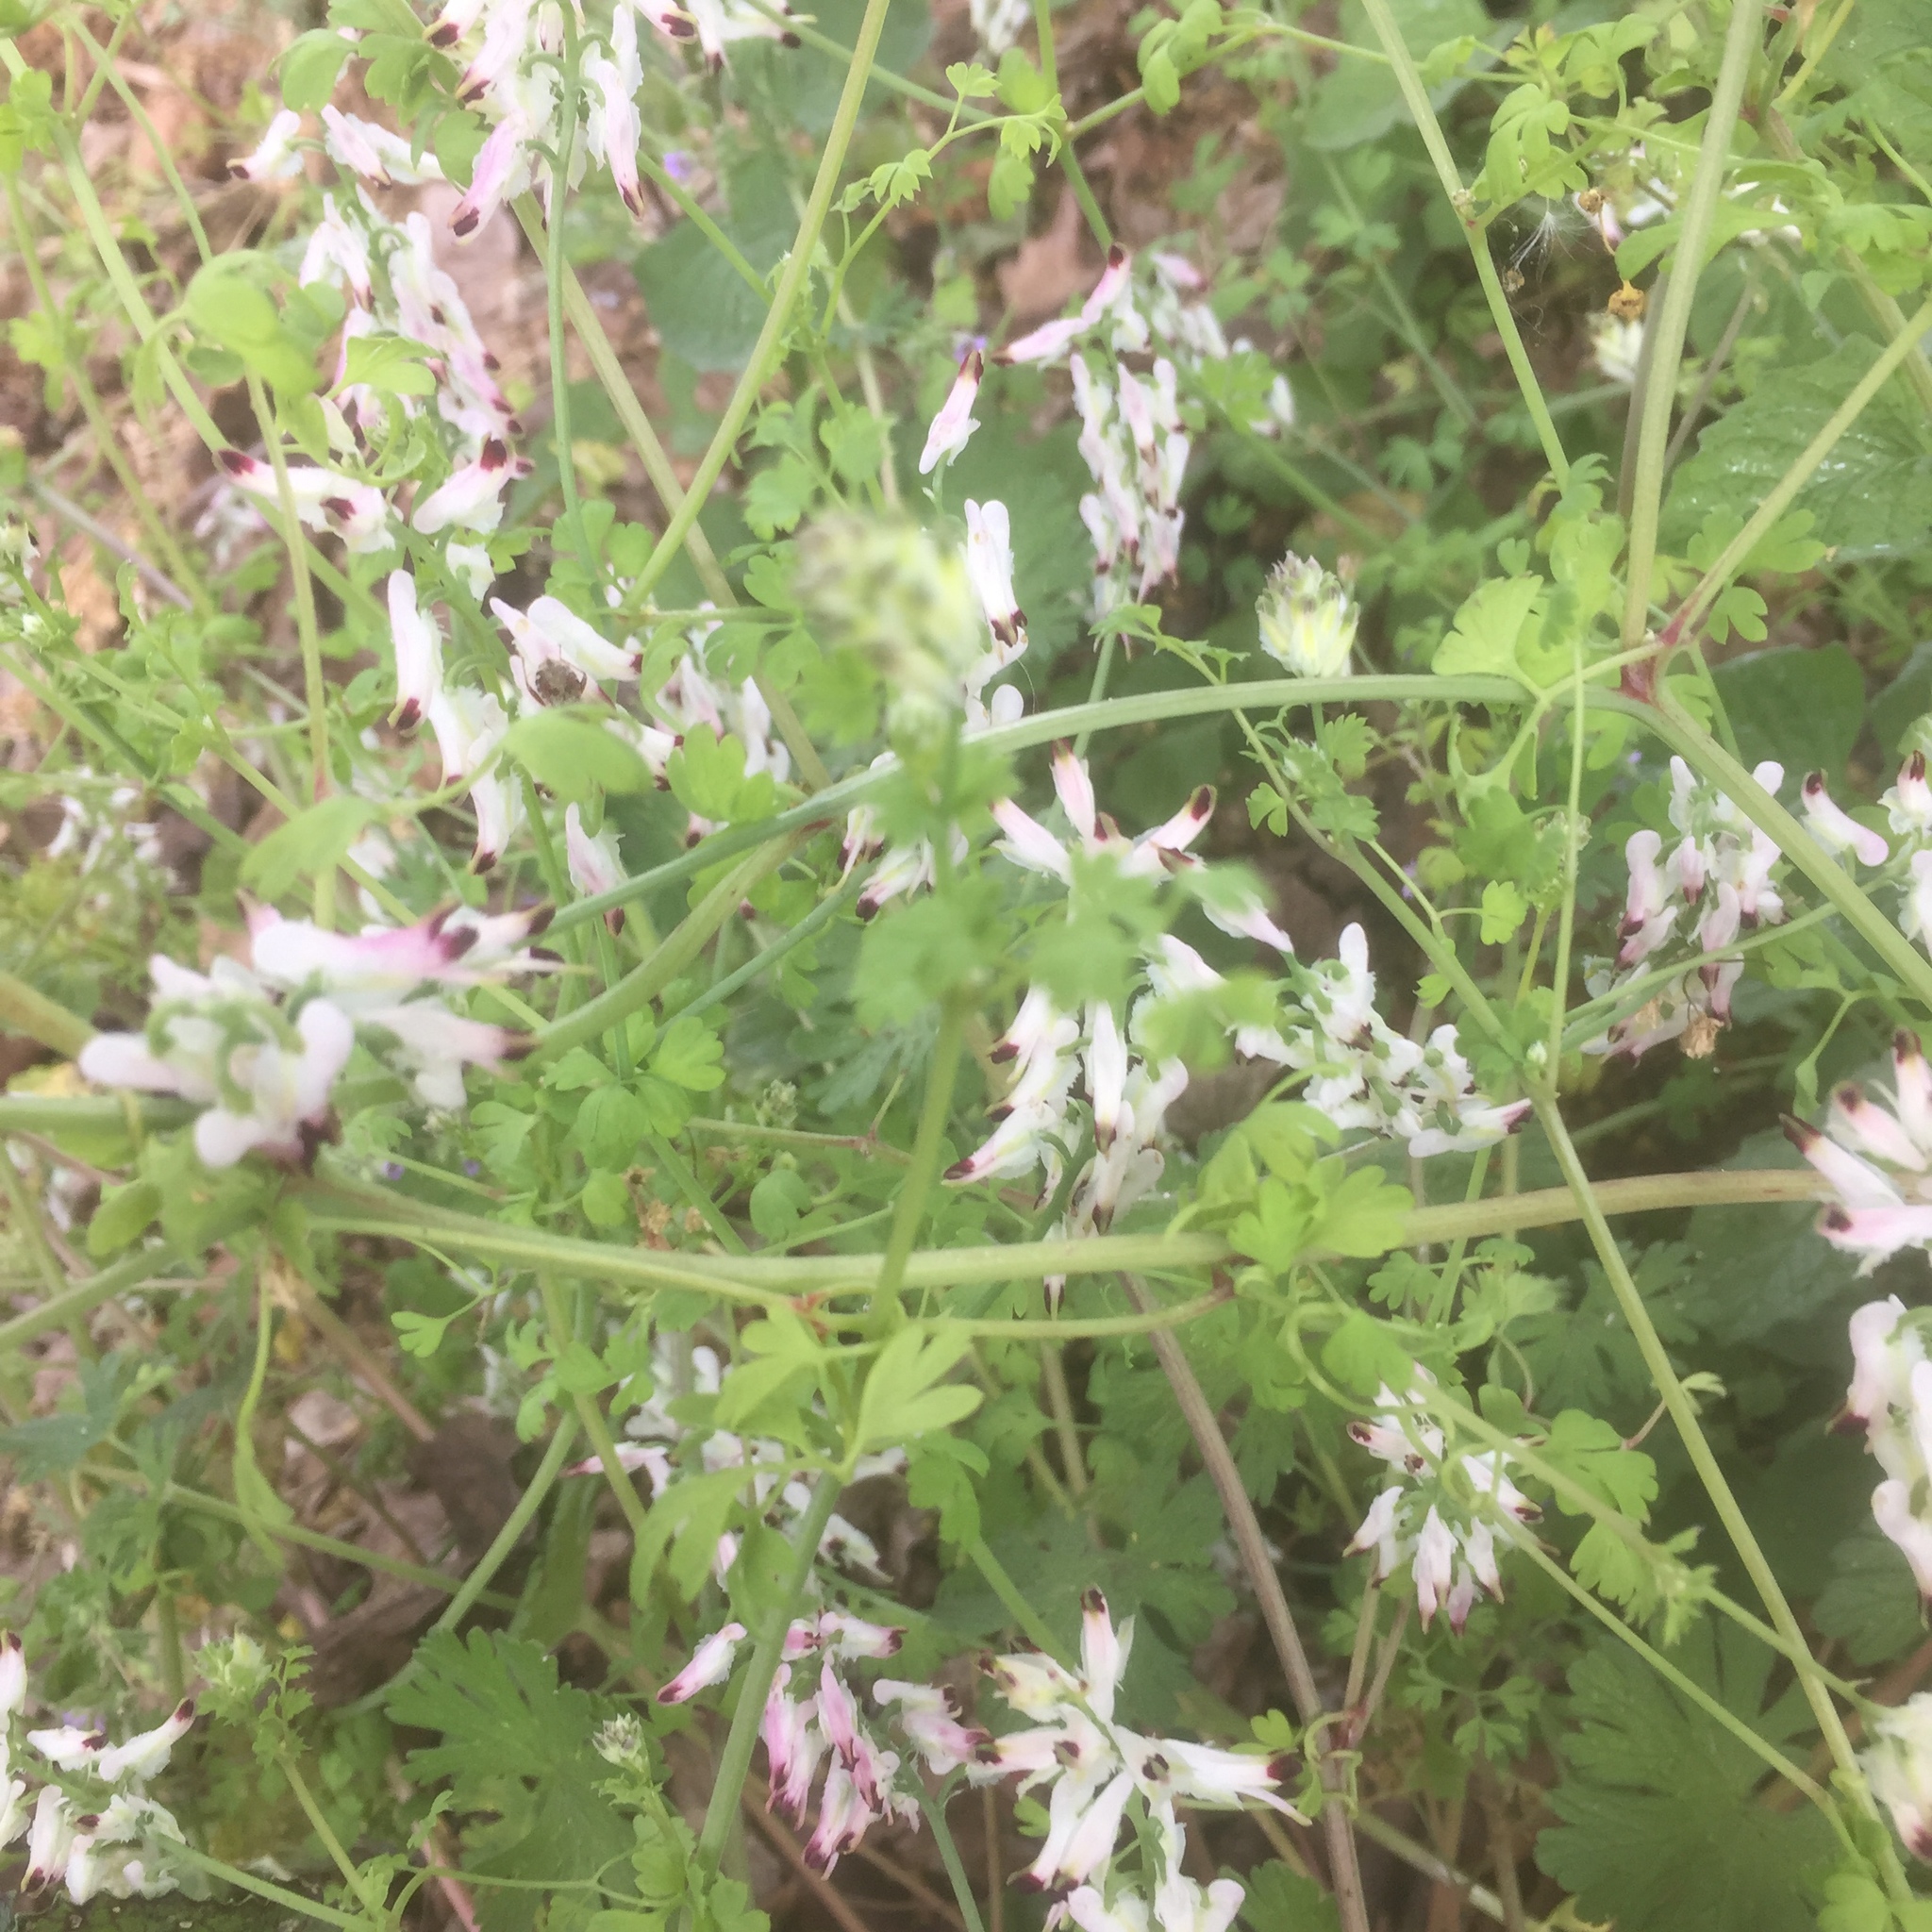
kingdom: Plantae
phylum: Tracheophyta
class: Magnoliopsida
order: Ranunculales
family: Papaveraceae
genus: Fumaria
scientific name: Fumaria capreolata
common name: White ramping-fumitory
